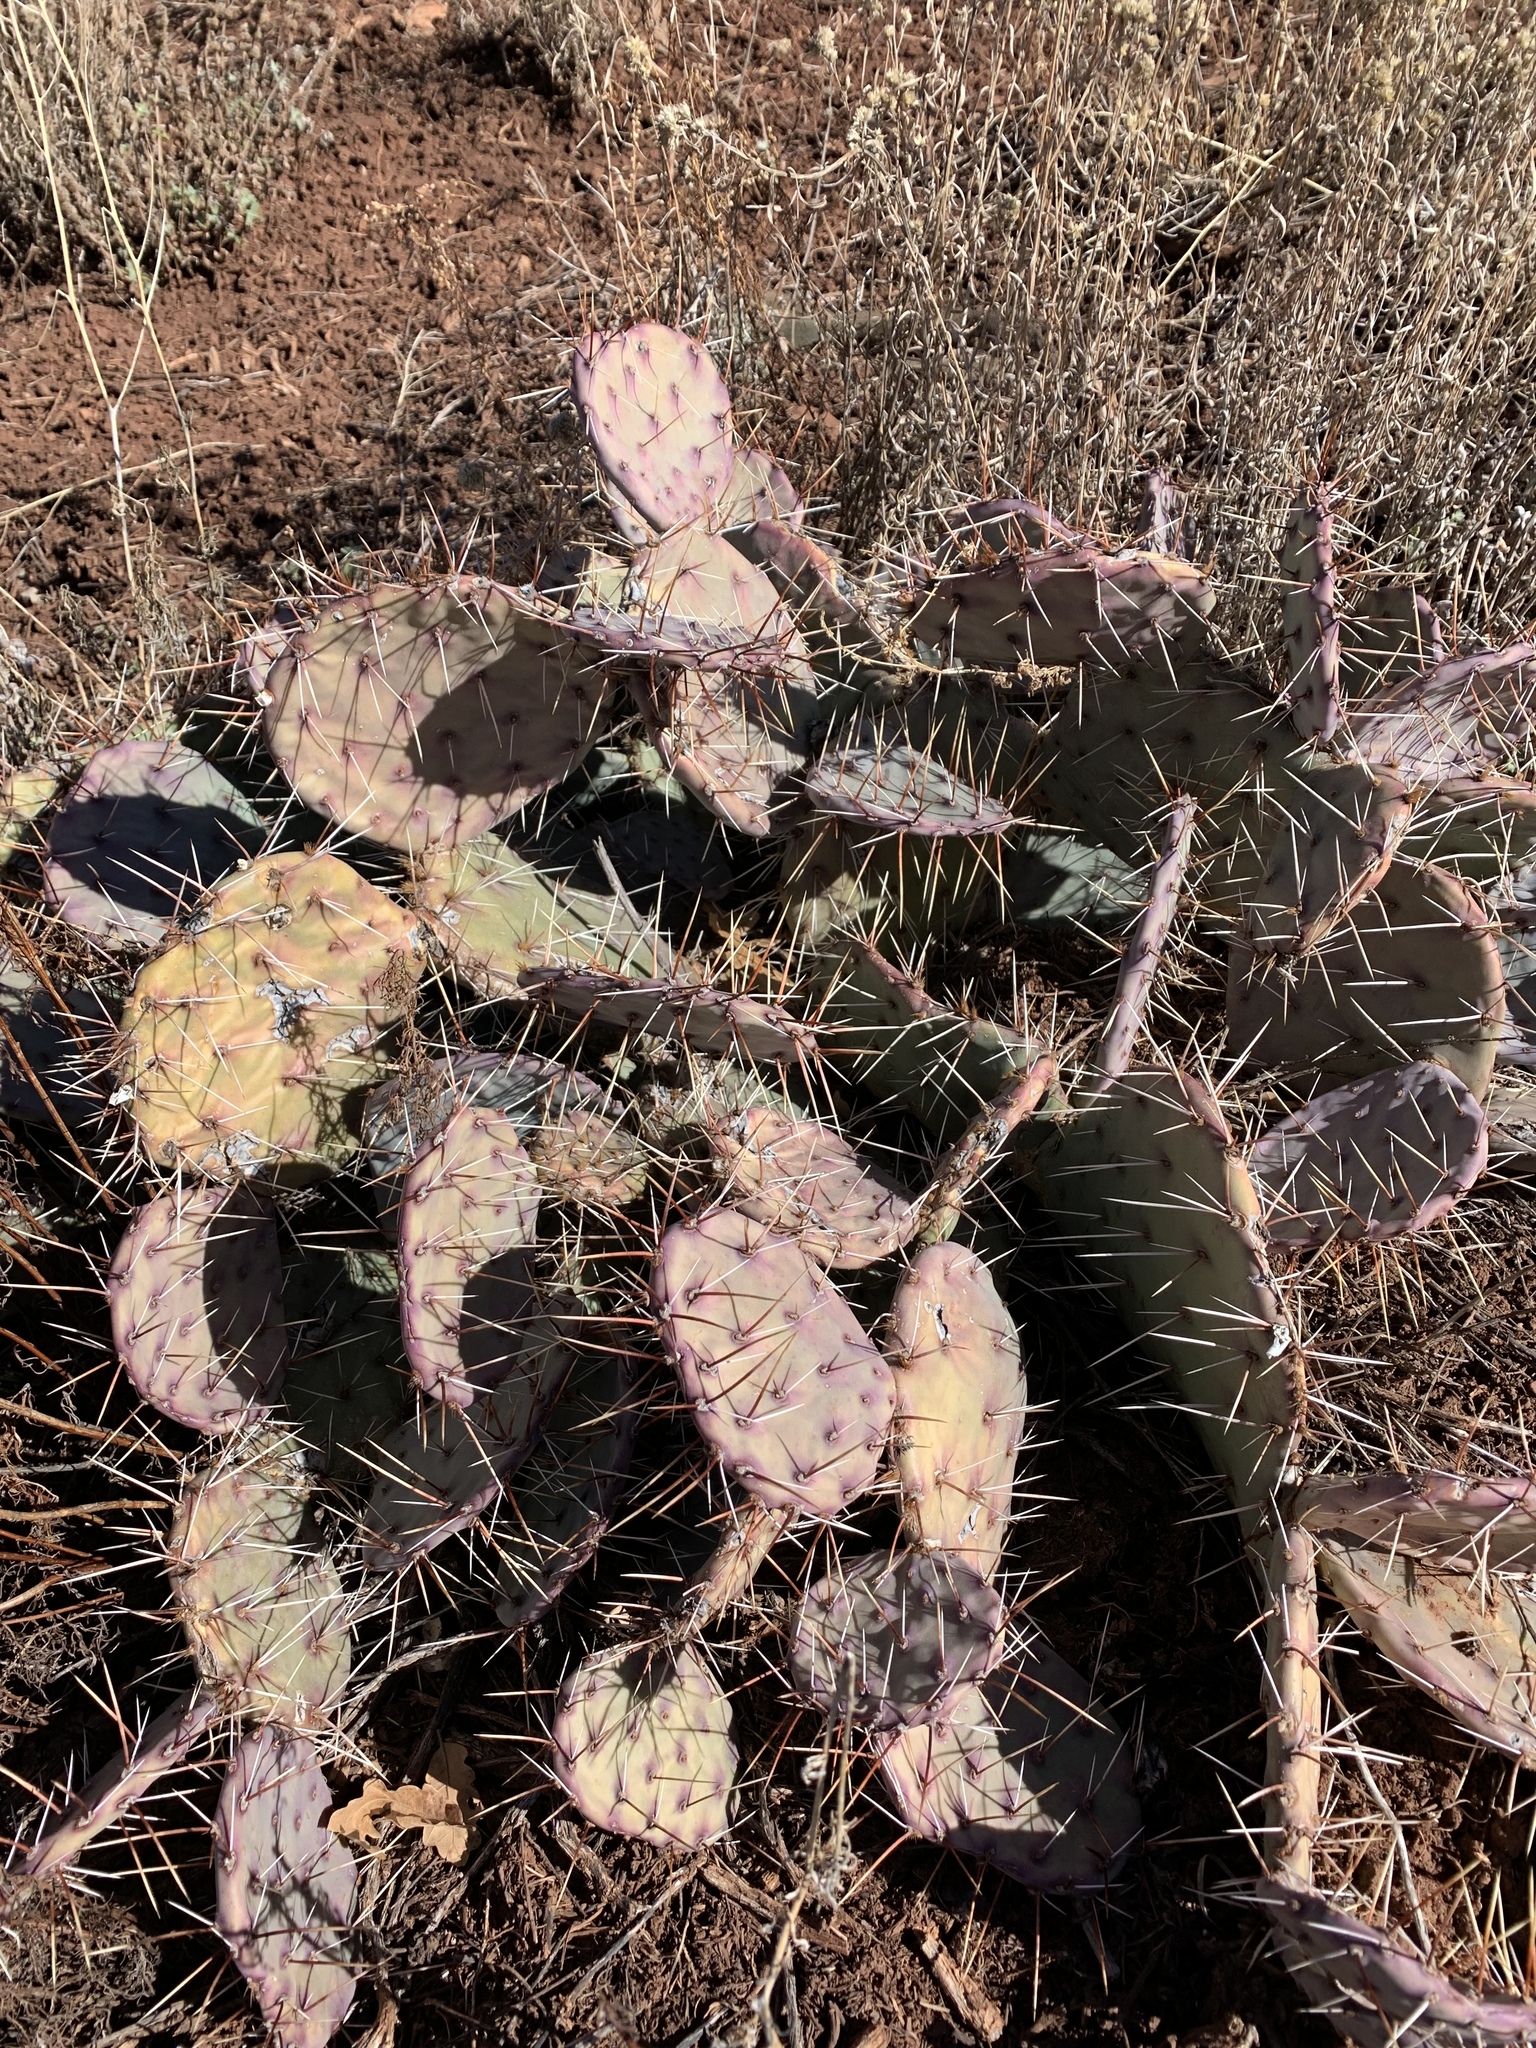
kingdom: Plantae
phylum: Tracheophyta
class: Magnoliopsida
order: Caryophyllales
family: Cactaceae
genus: Opuntia
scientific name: Opuntia phaeacantha
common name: New mexico prickly-pear
